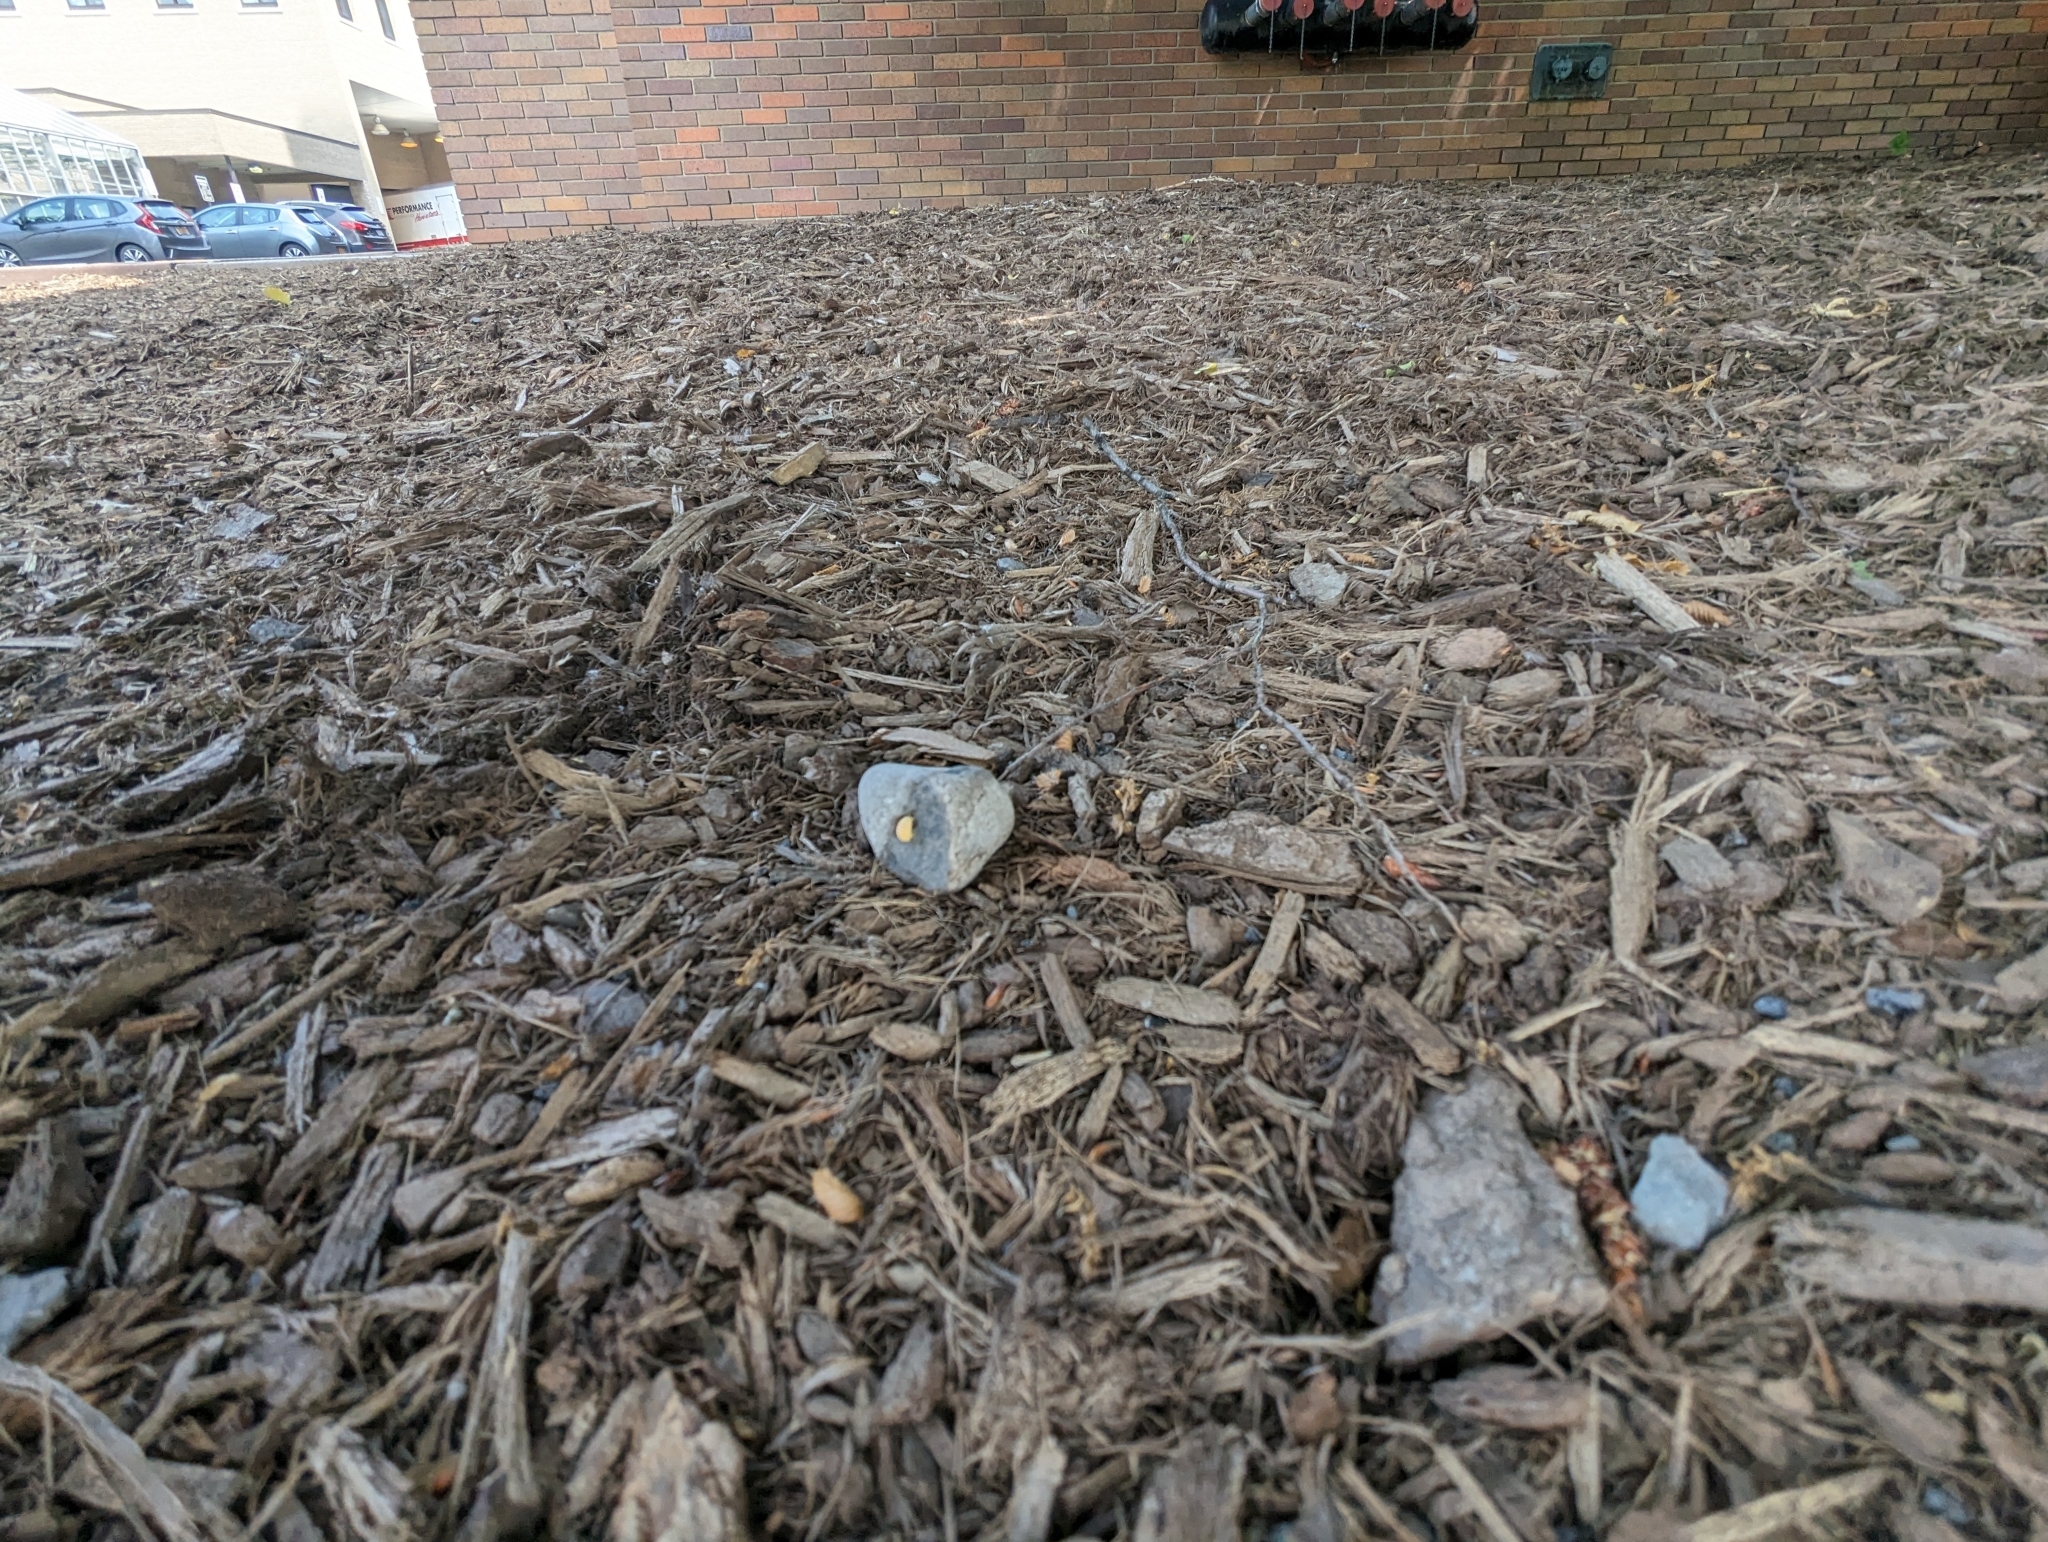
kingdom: Animalia
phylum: Arthropoda
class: Insecta
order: Coleoptera
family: Coccinellidae
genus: Harmonia
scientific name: Harmonia axyridis
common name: Harlequin ladybird
